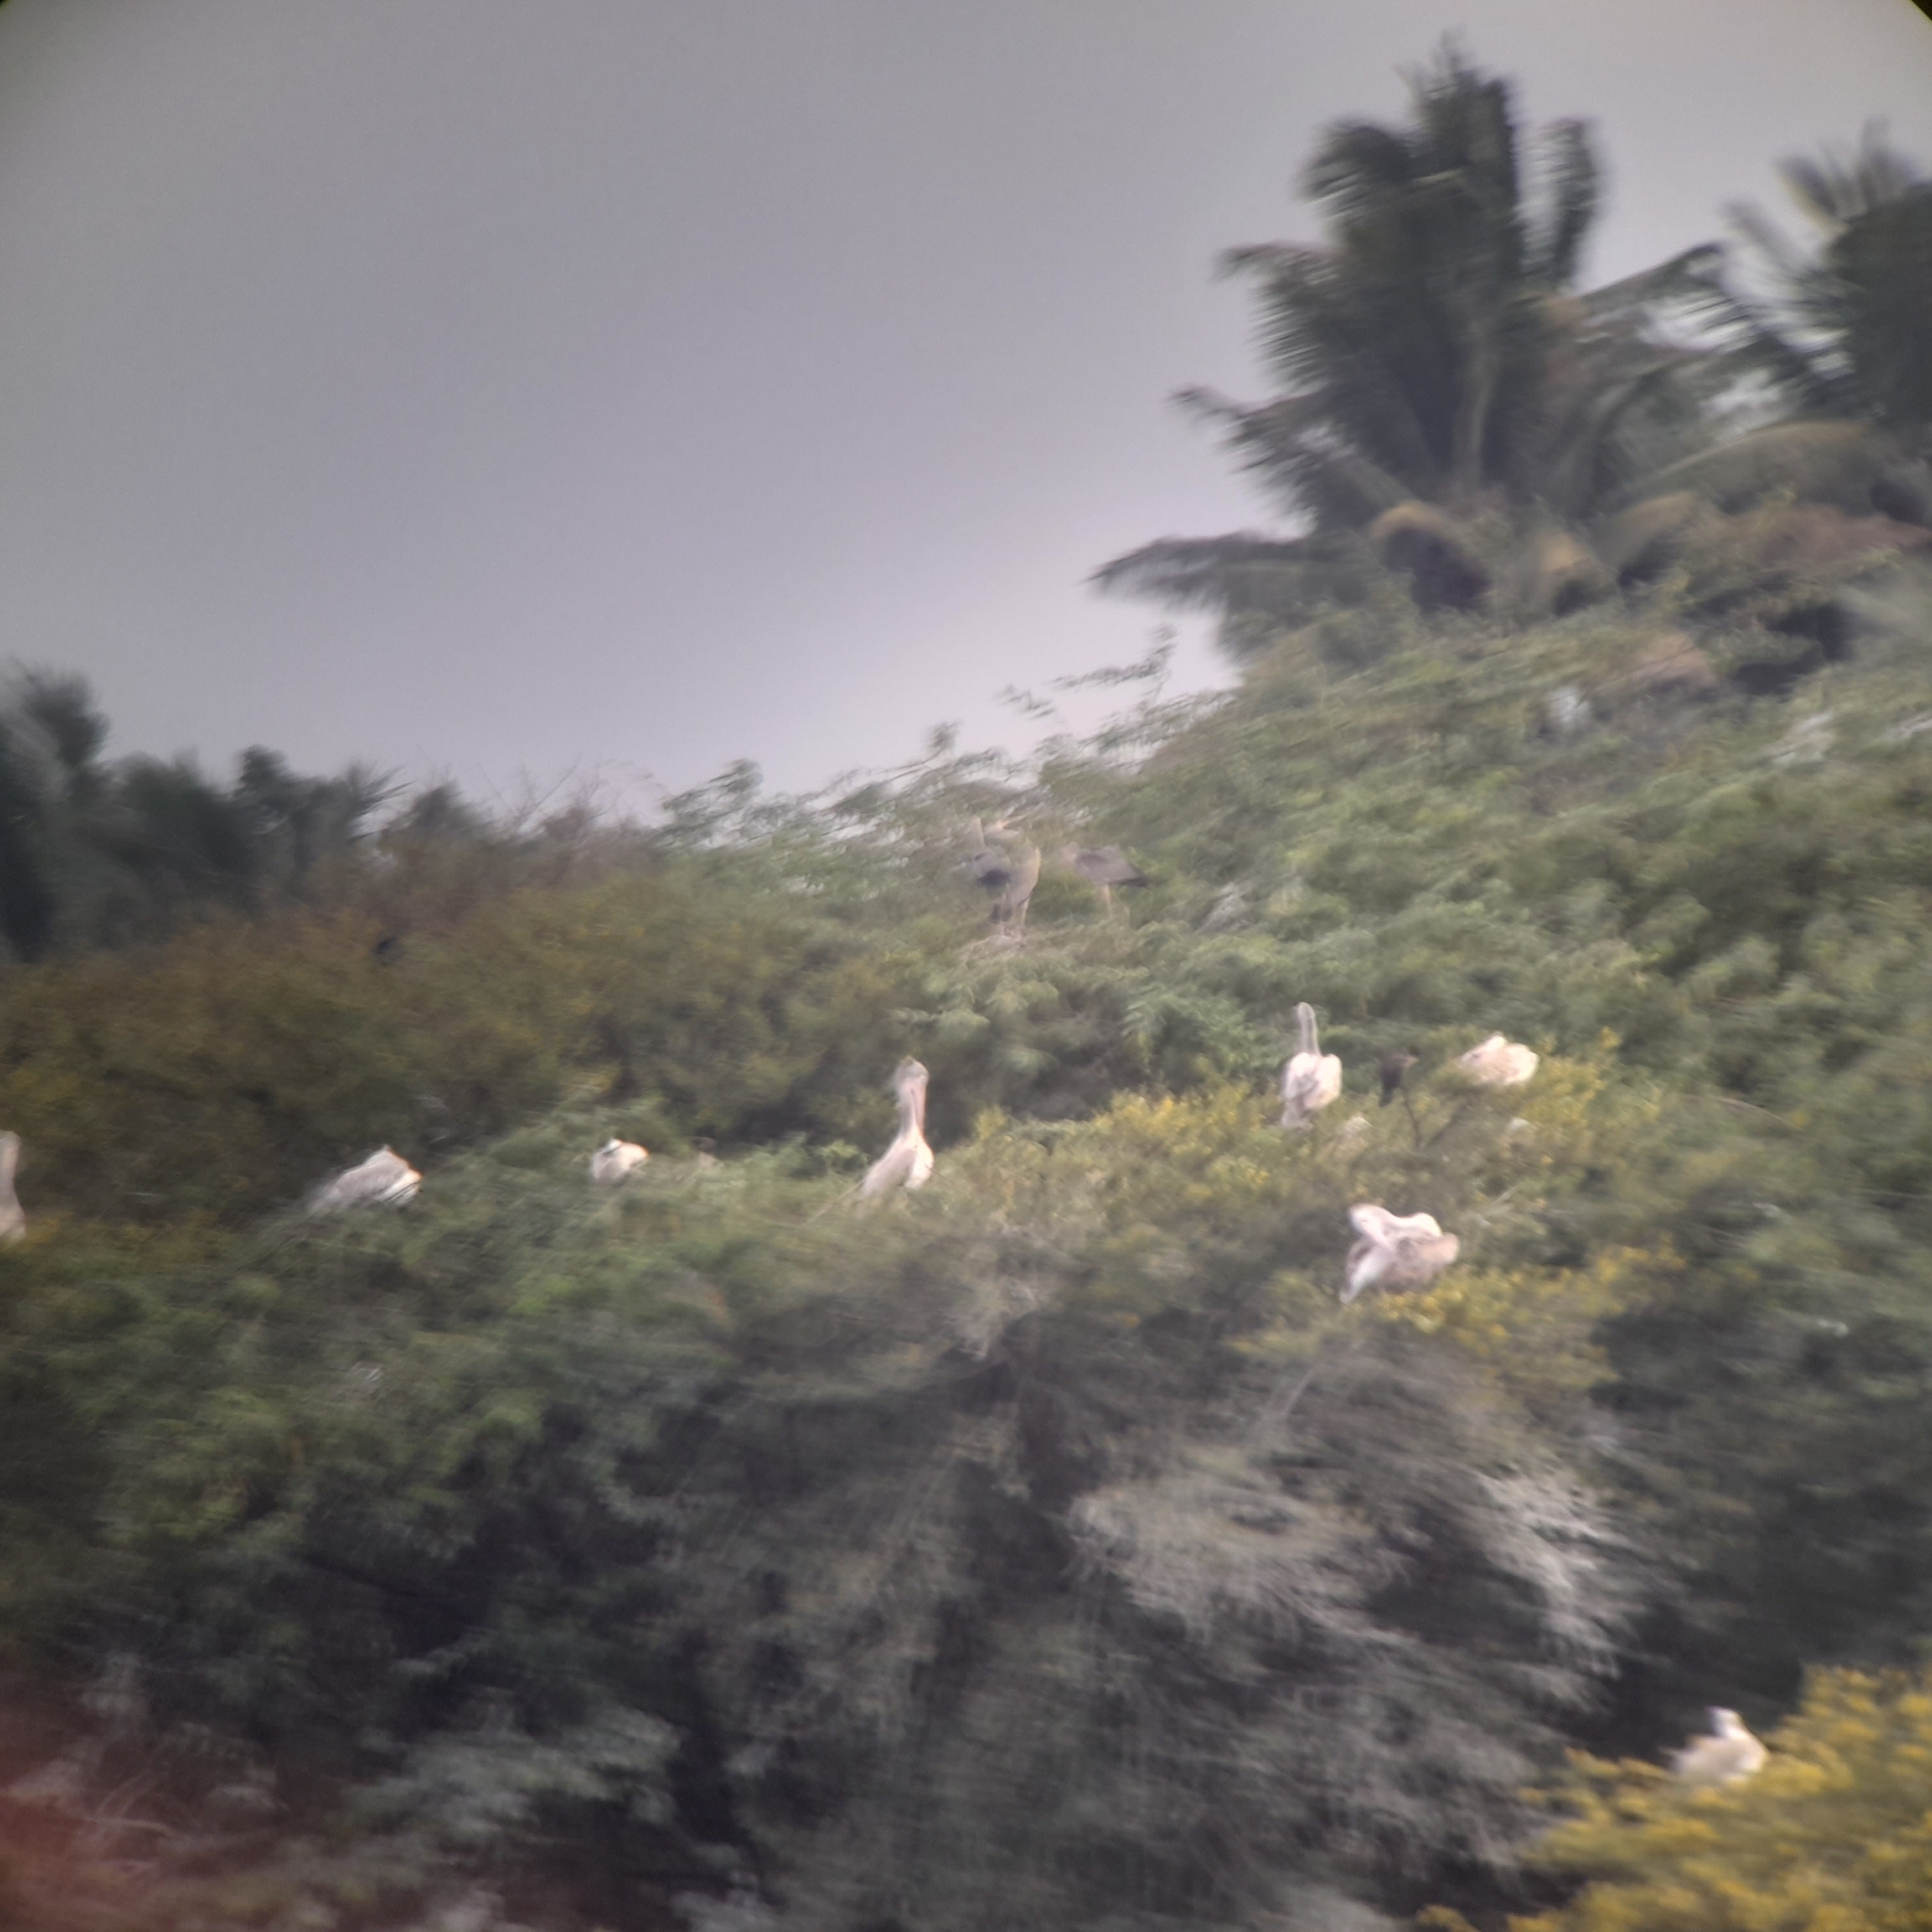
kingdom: Animalia
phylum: Chordata
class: Aves
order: Pelecaniformes
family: Pelecanidae
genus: Pelecanus
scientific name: Pelecanus philippensis
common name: Spot-billed pelican
